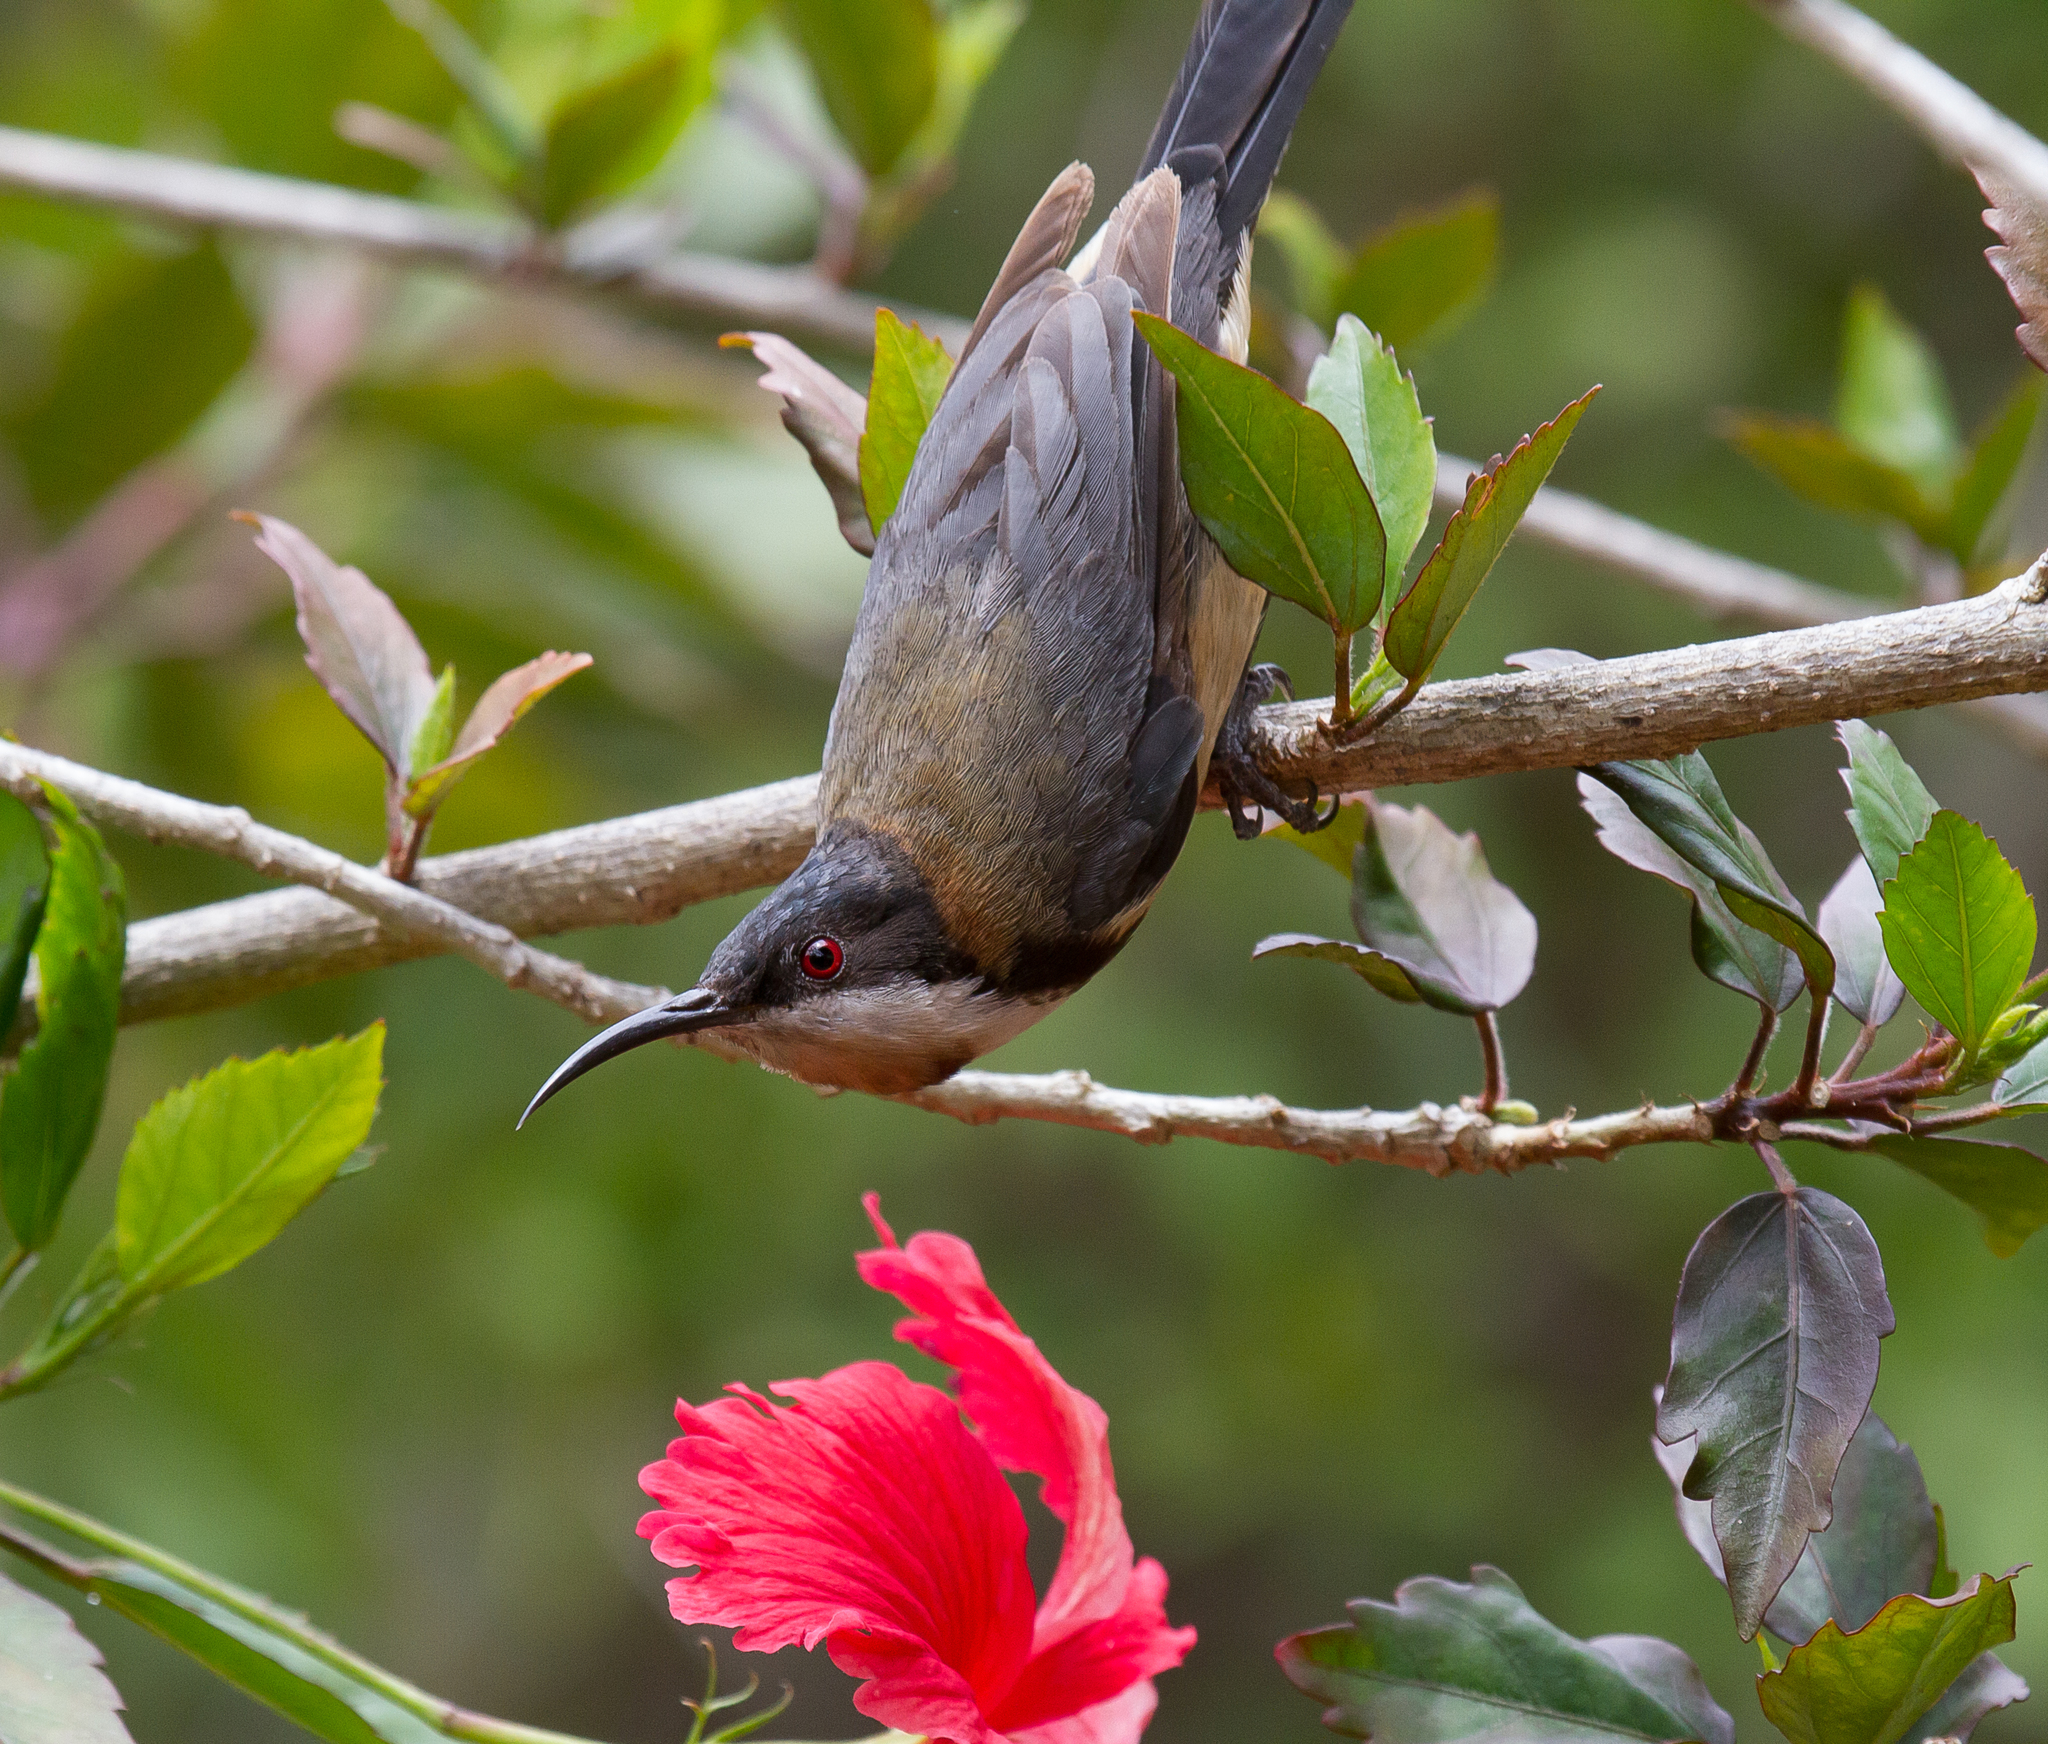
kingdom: Animalia
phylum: Chordata
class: Aves
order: Passeriformes
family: Meliphagidae
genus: Acanthorhynchus
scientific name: Acanthorhynchus tenuirostris
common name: Eastern spinebill
